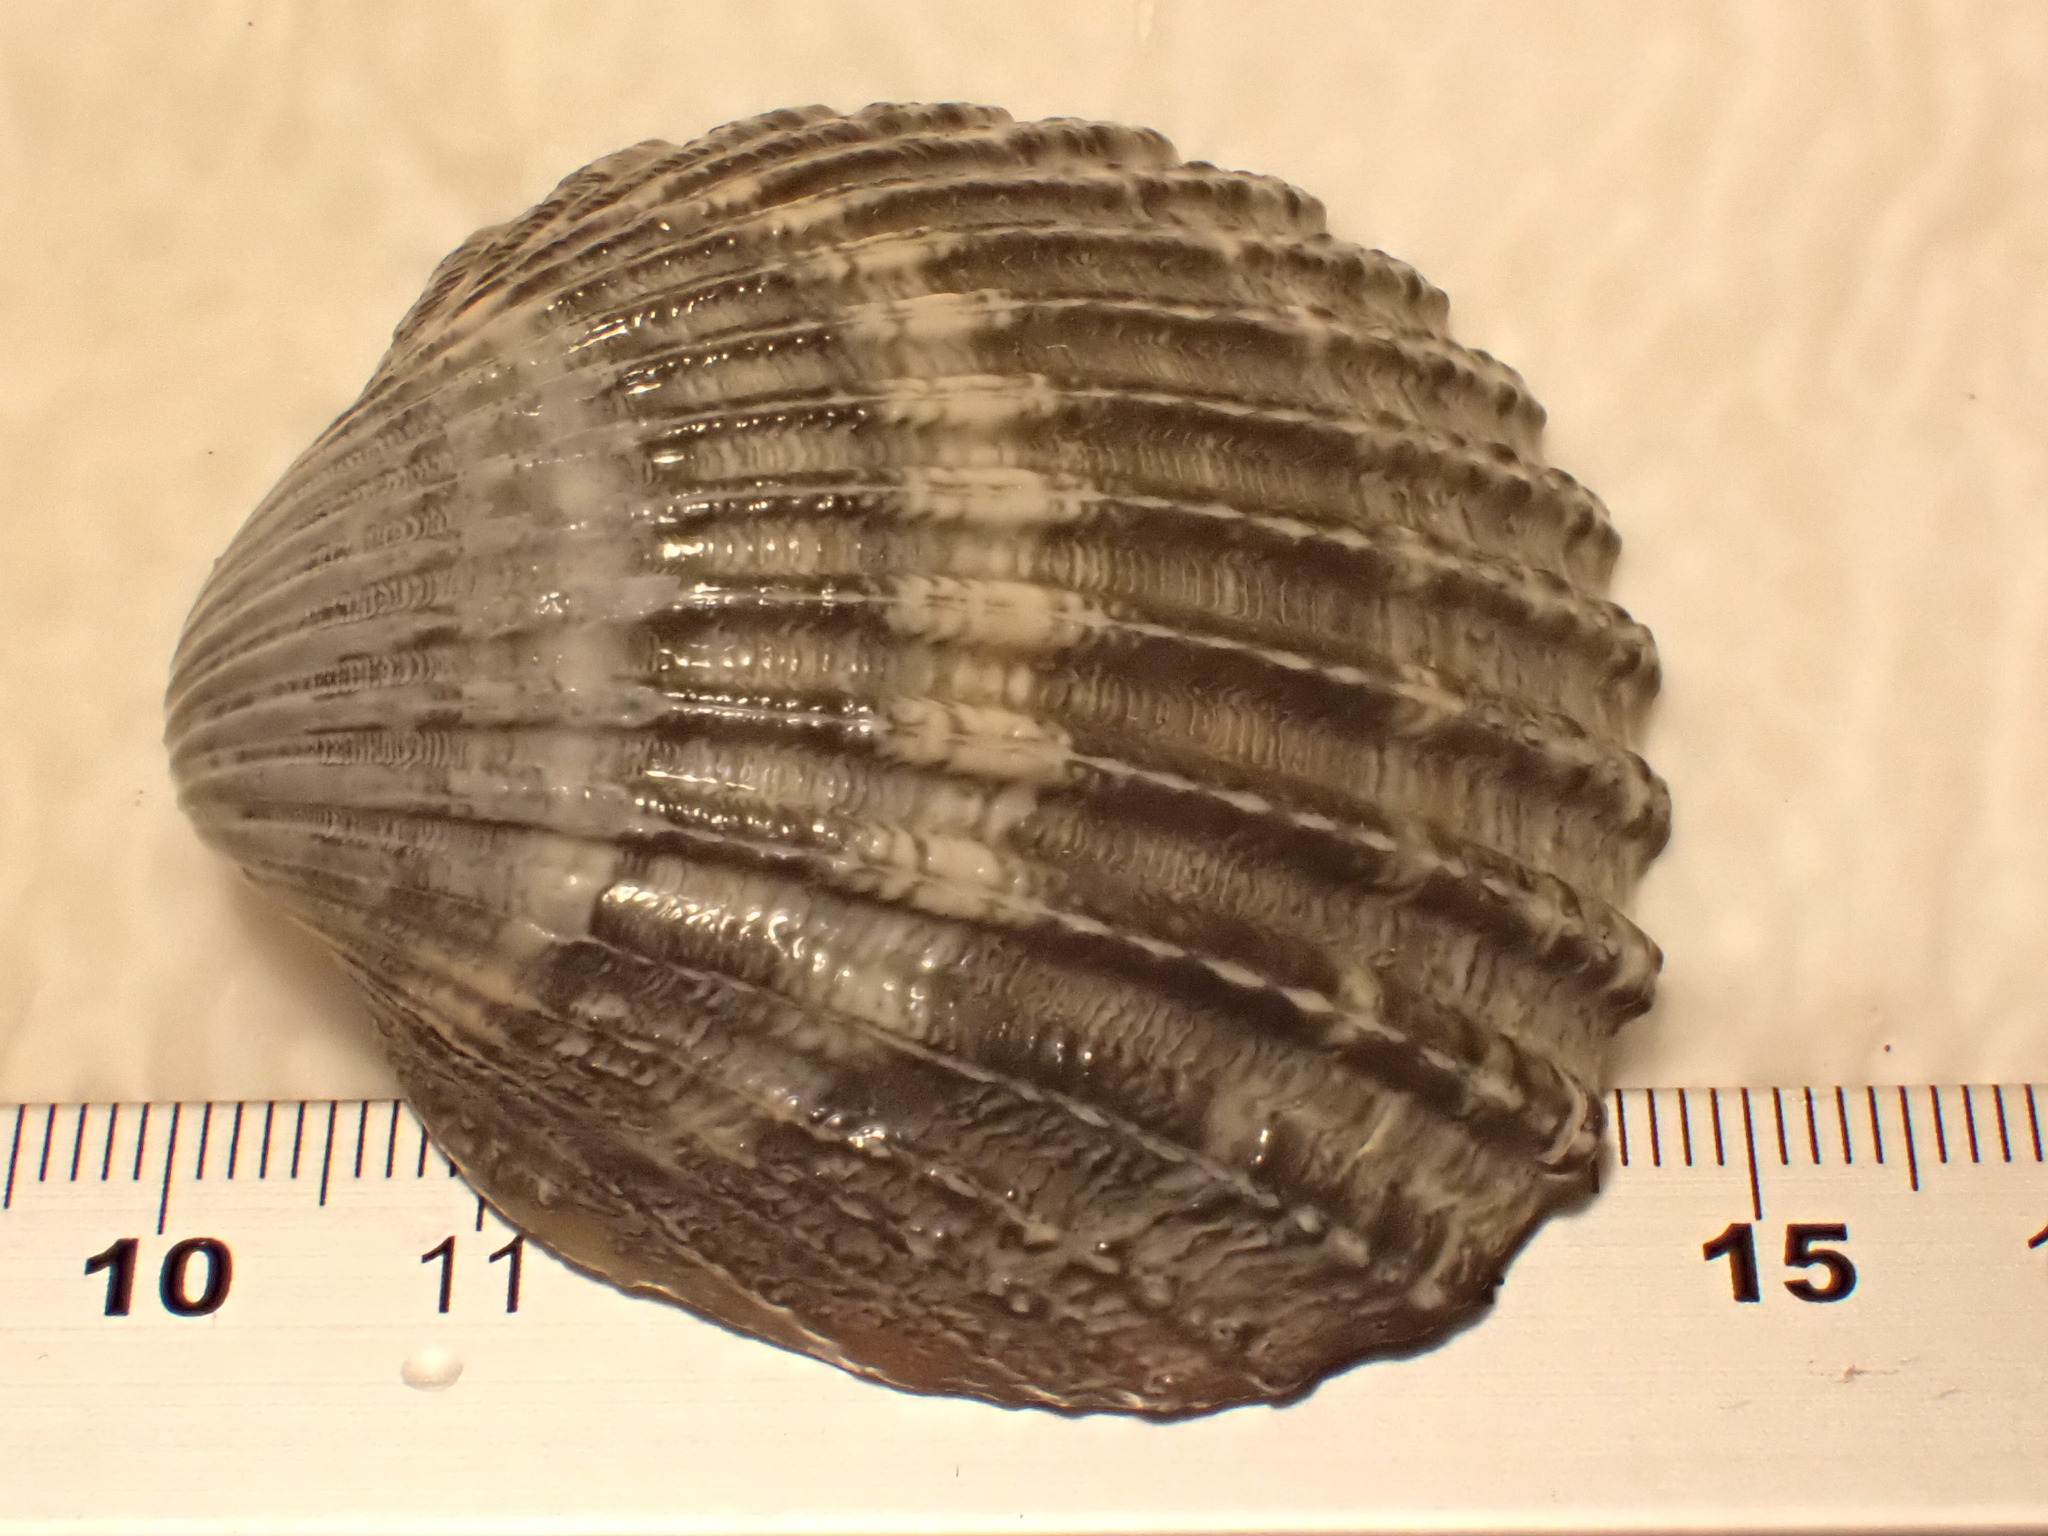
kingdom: Animalia
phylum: Mollusca
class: Bivalvia
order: Cardiida
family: Cardiidae
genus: Acanthocardia
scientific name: Acanthocardia echinata
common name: Prickly cockle
